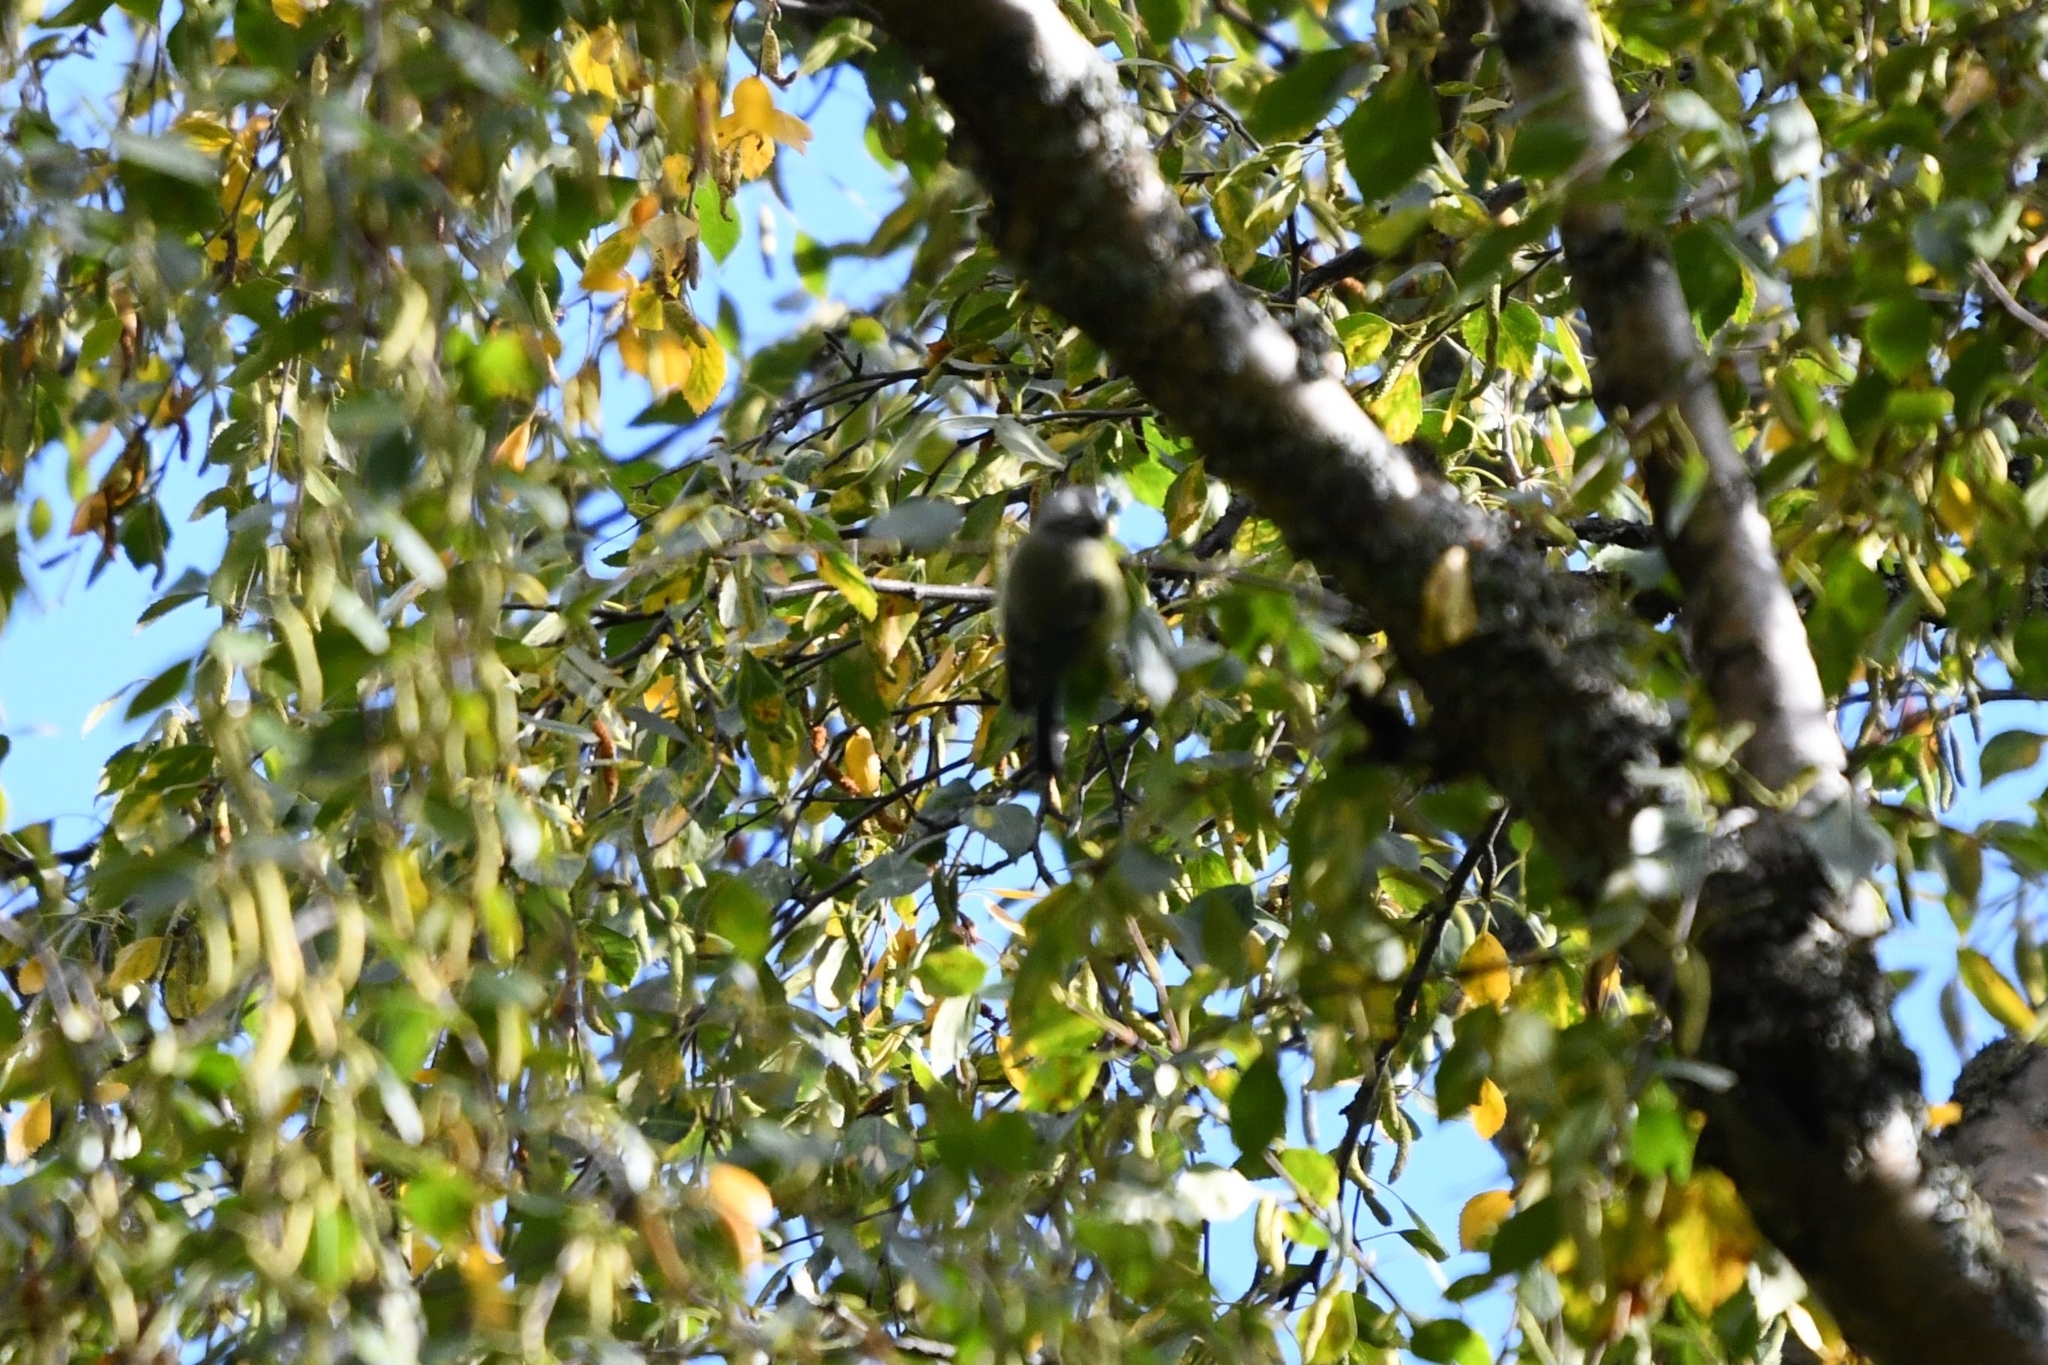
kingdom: Animalia
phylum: Chordata
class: Aves
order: Passeriformes
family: Paridae
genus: Cyanistes
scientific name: Cyanistes caeruleus
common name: Eurasian blue tit
